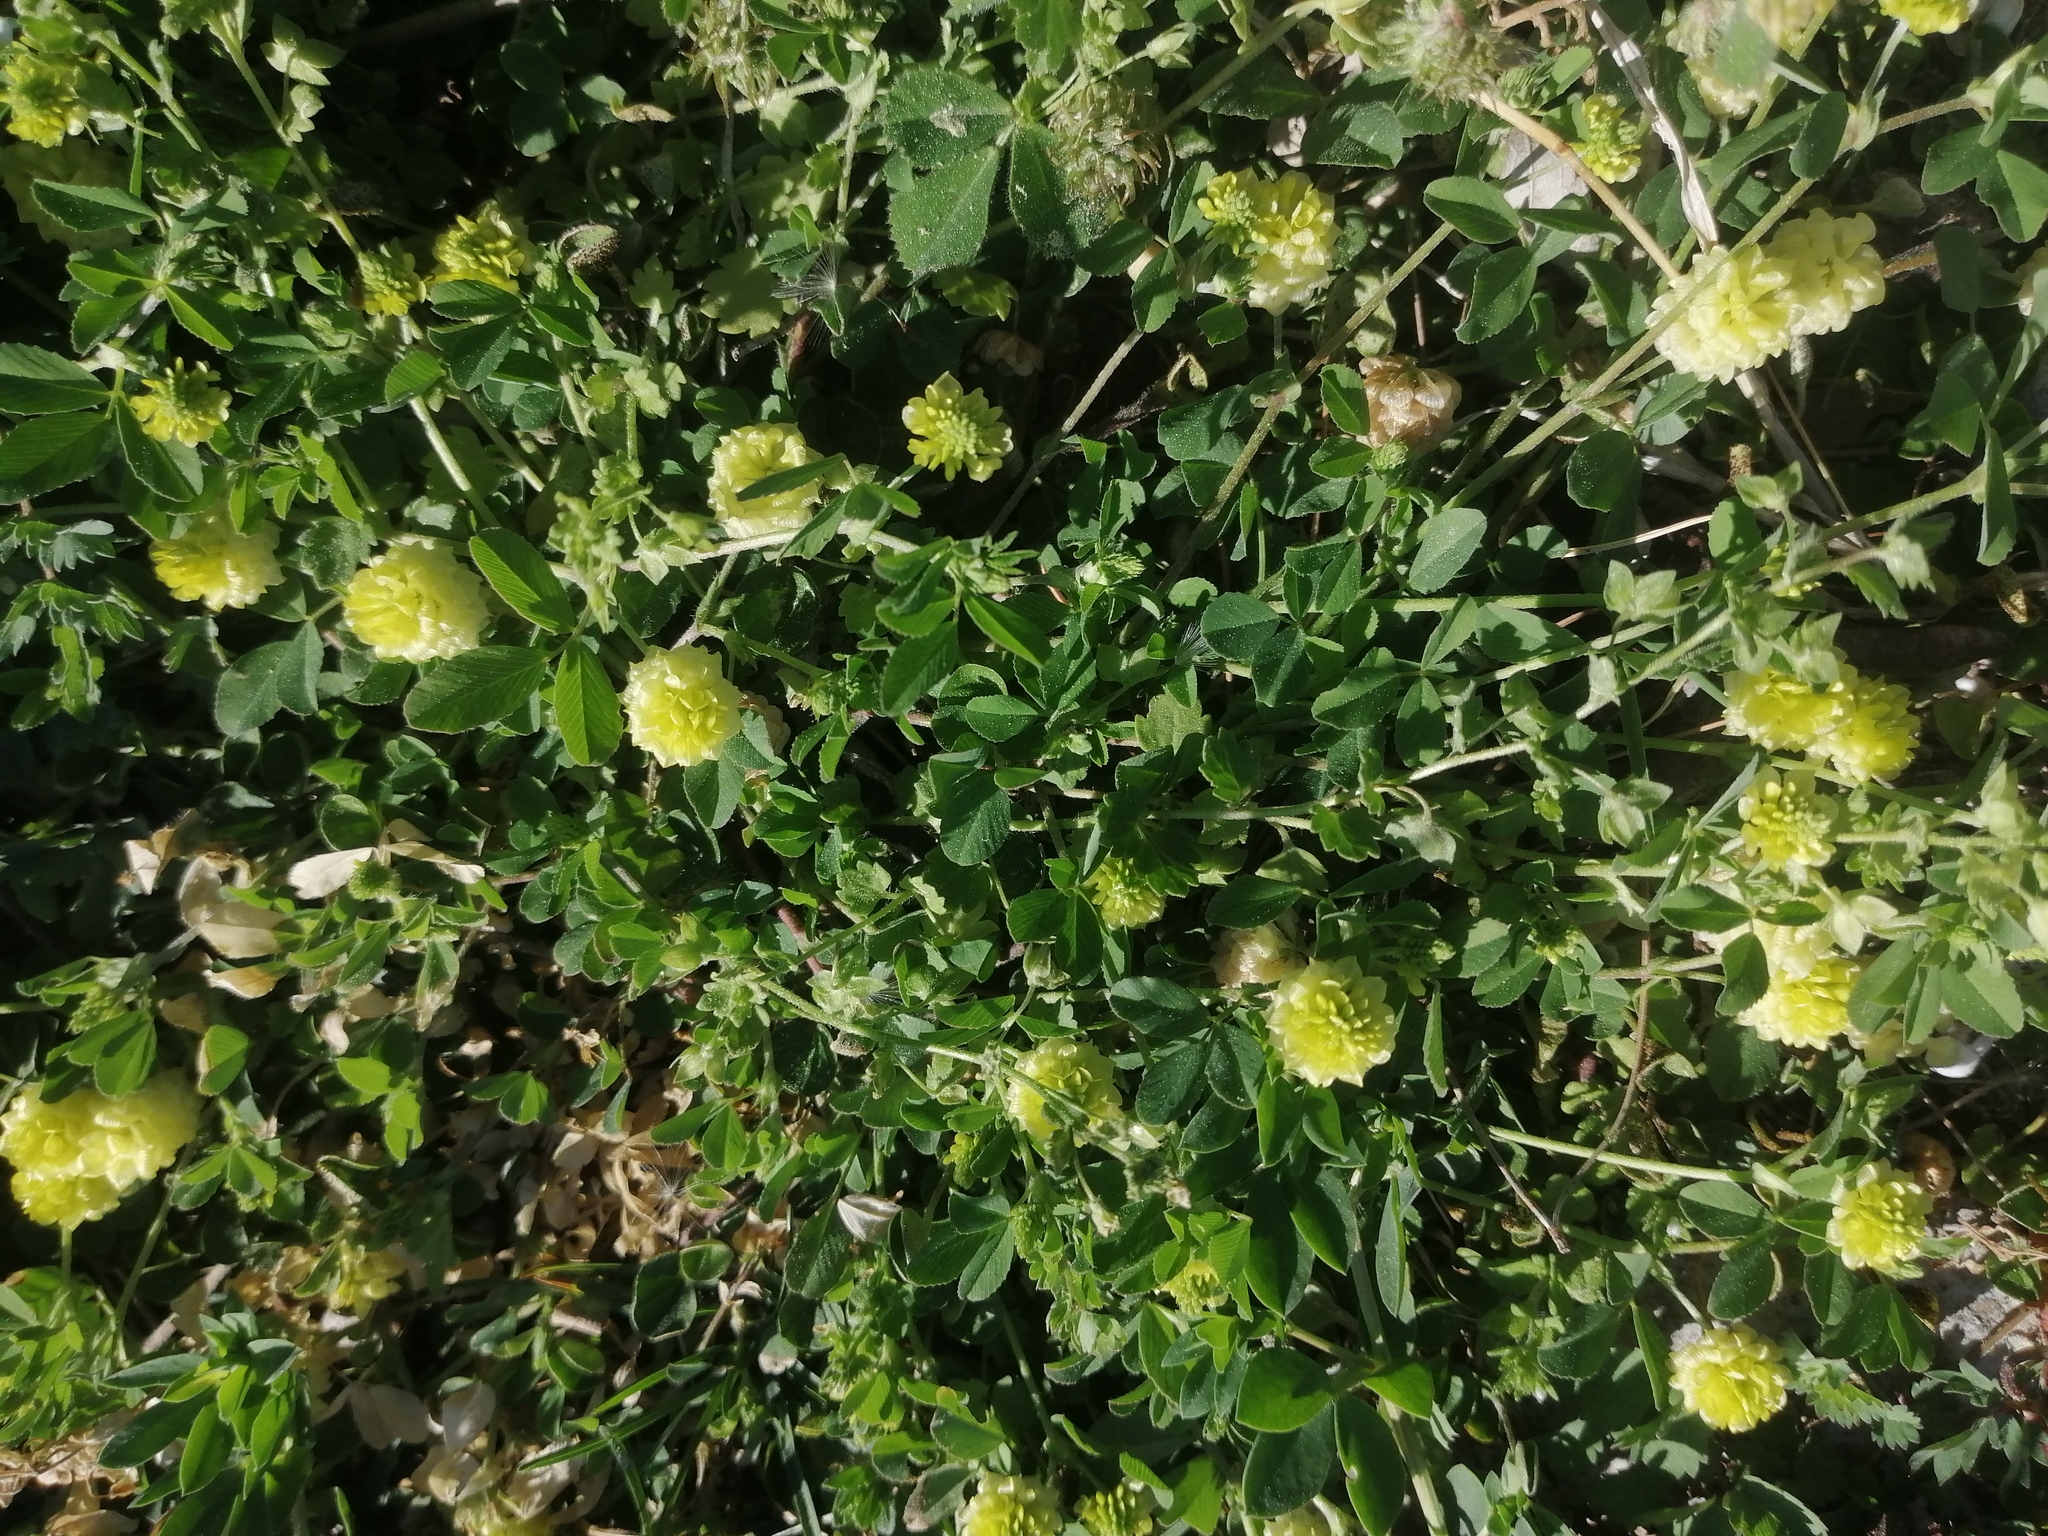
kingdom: Plantae
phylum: Tracheophyta
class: Magnoliopsida
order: Fabales
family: Fabaceae
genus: Trifolium
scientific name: Trifolium campestre
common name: Field clover
